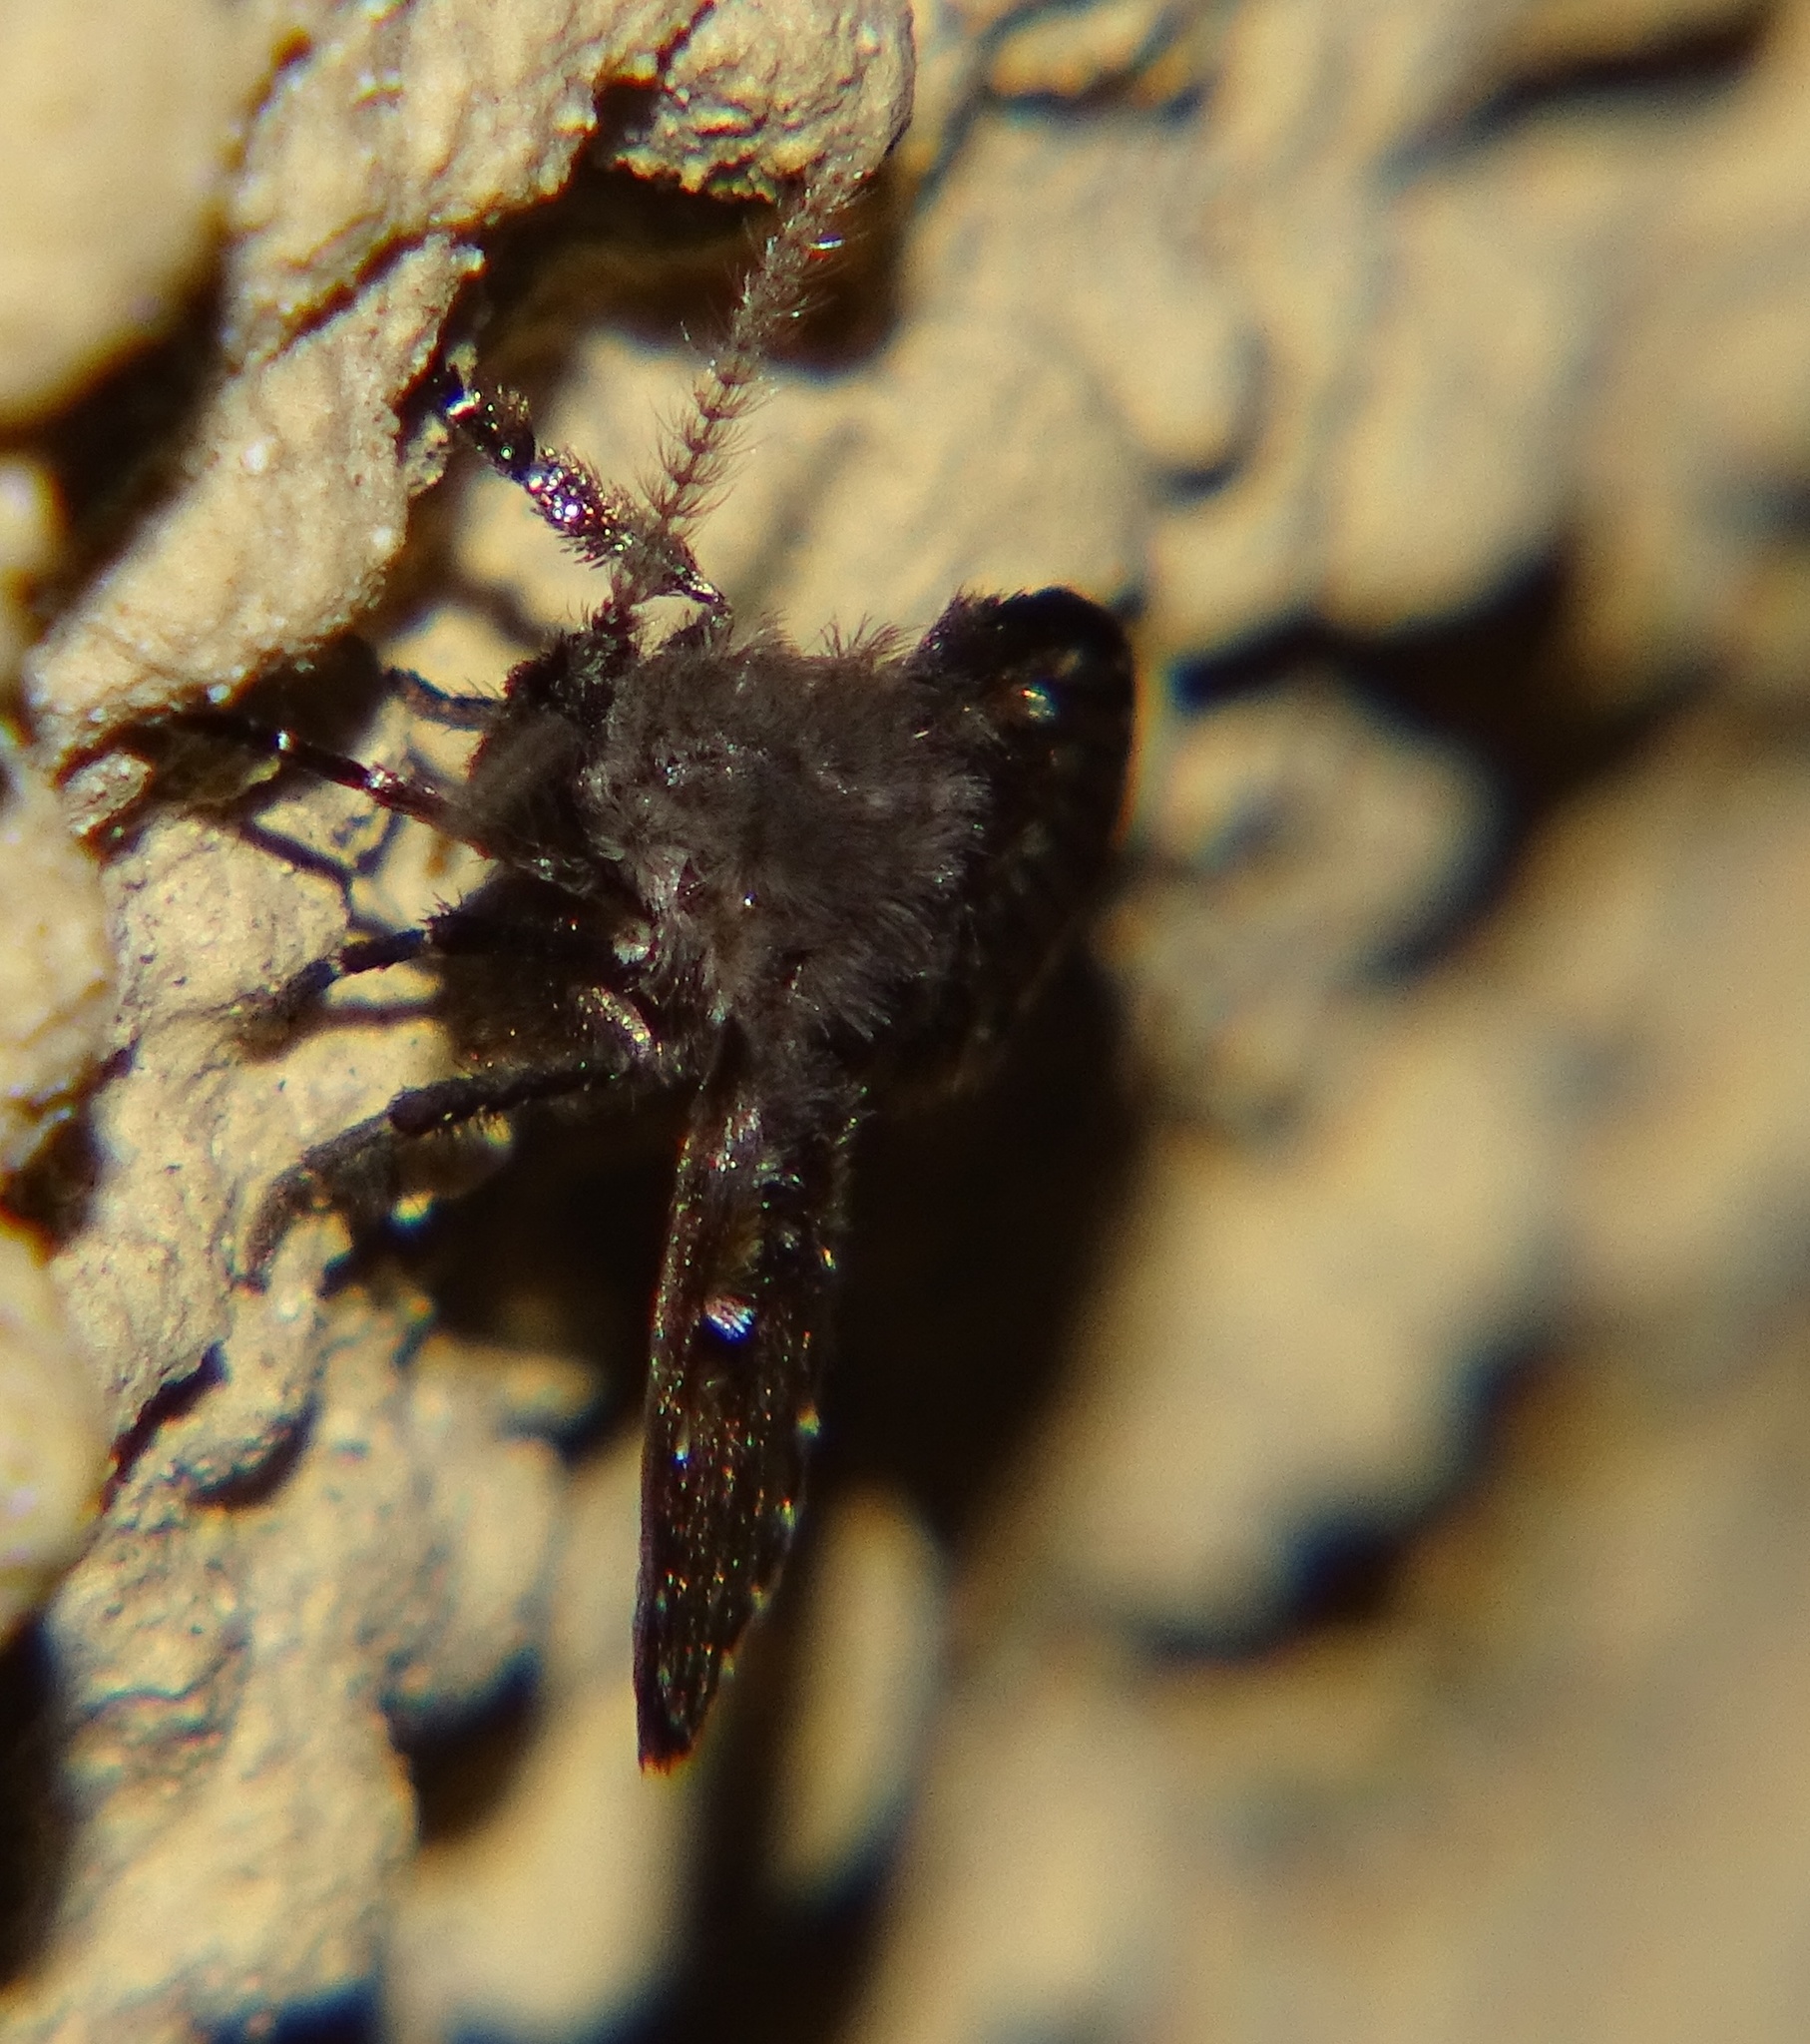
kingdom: Animalia
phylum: Arthropoda
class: Insecta
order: Diptera
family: Psychodidae
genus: Clogmia
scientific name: Clogmia albipunctatus
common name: White-spotted moth fly
